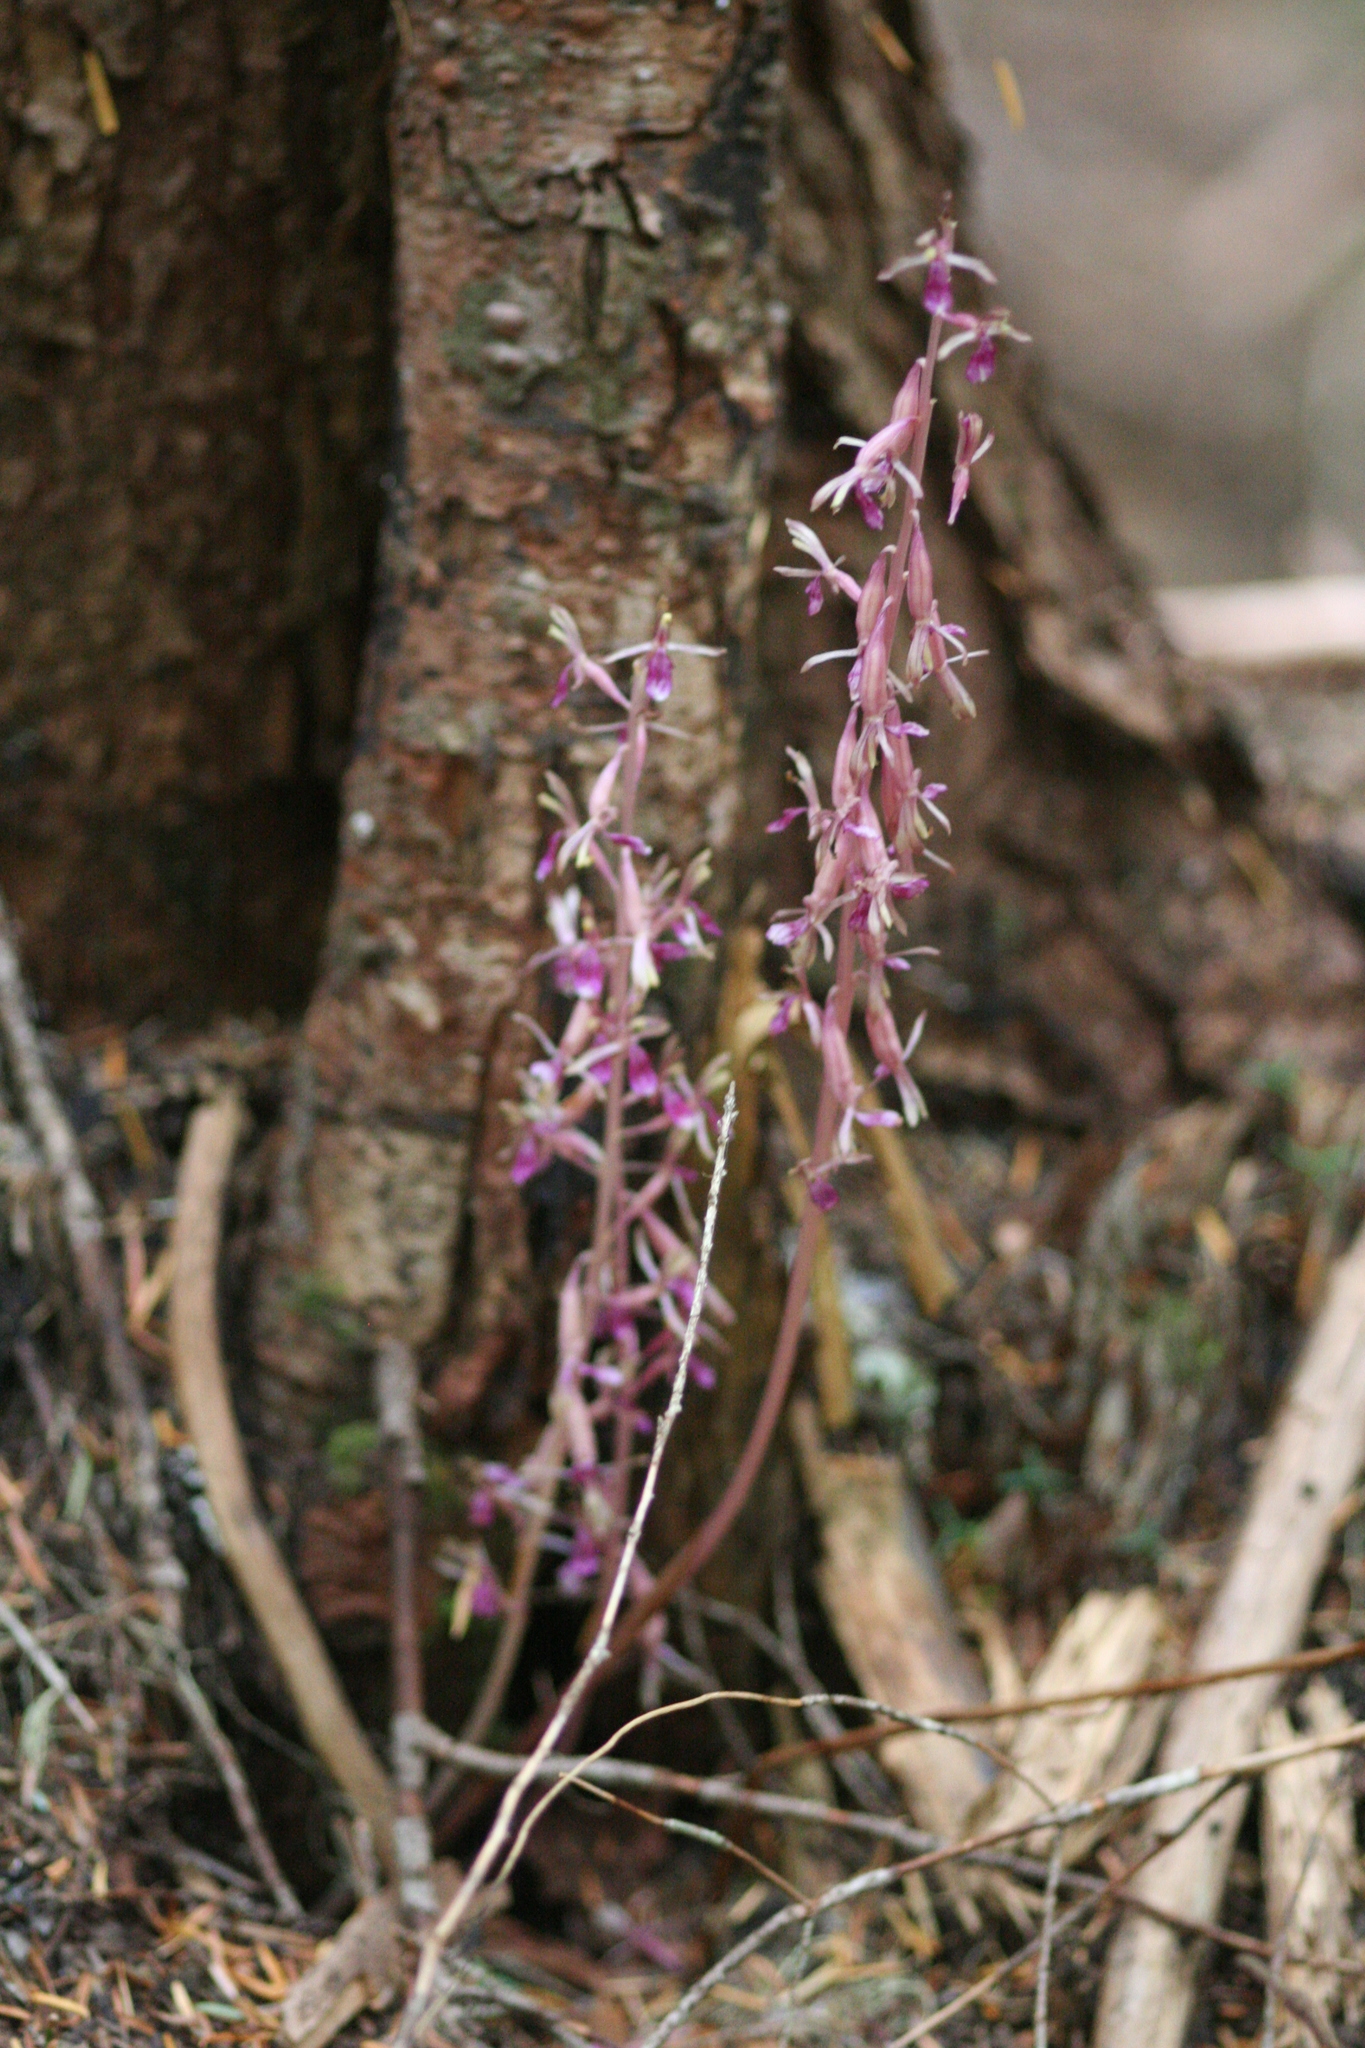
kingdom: Plantae
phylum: Tracheophyta
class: Liliopsida
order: Asparagales
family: Orchidaceae
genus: Corallorhiza
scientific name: Corallorhiza mertensiana
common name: Pacific coralroot
